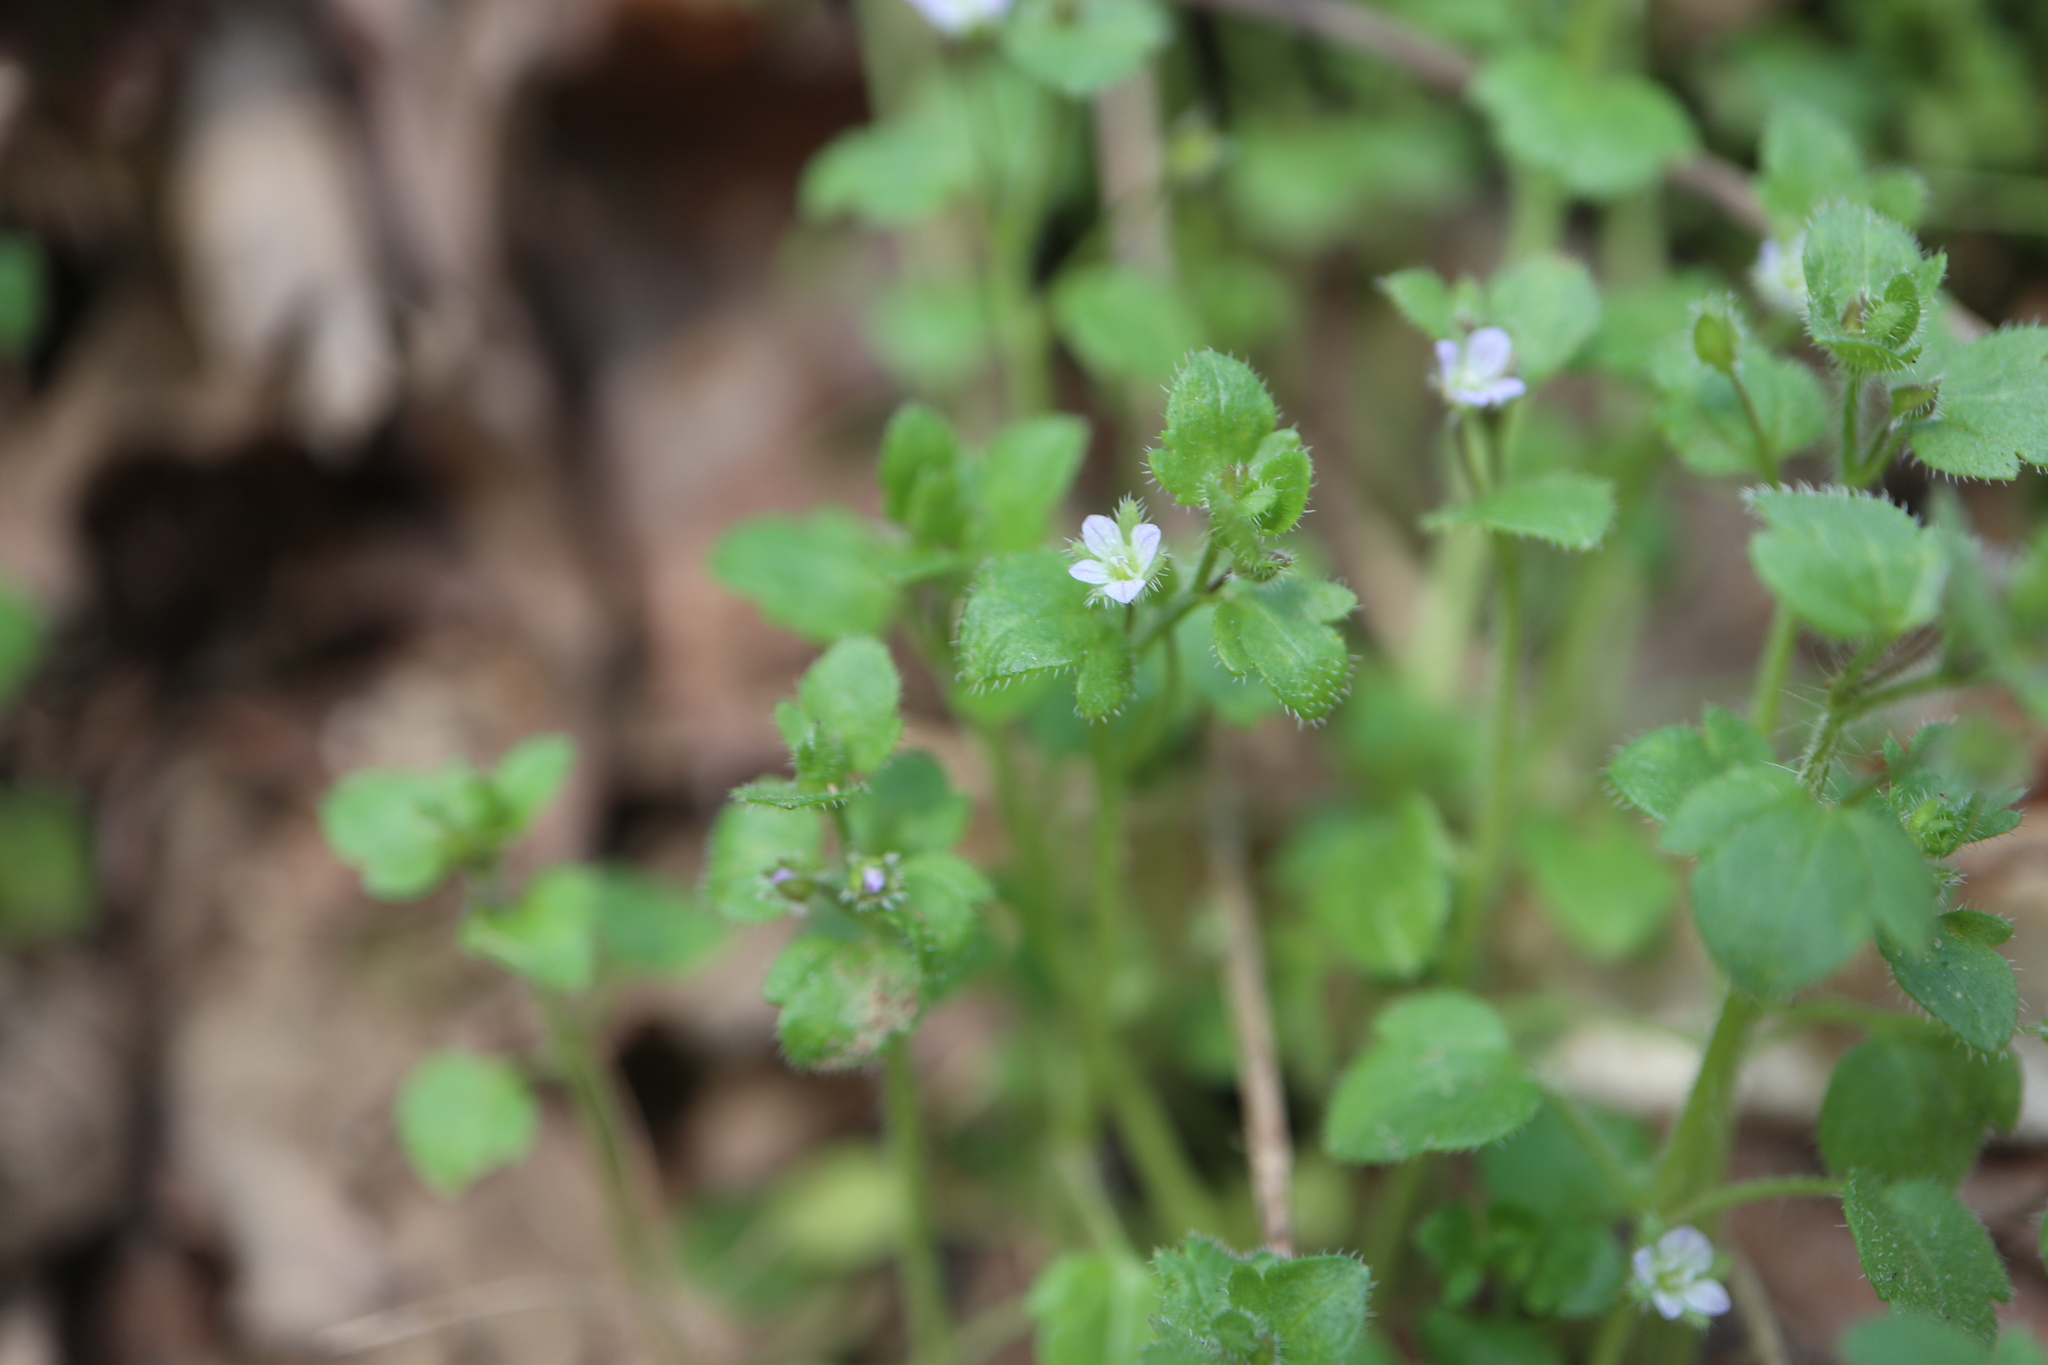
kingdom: Plantae
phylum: Tracheophyta
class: Magnoliopsida
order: Lamiales
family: Plantaginaceae
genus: Veronica
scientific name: Veronica hederifolia
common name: Ivy-leaved speedwell
